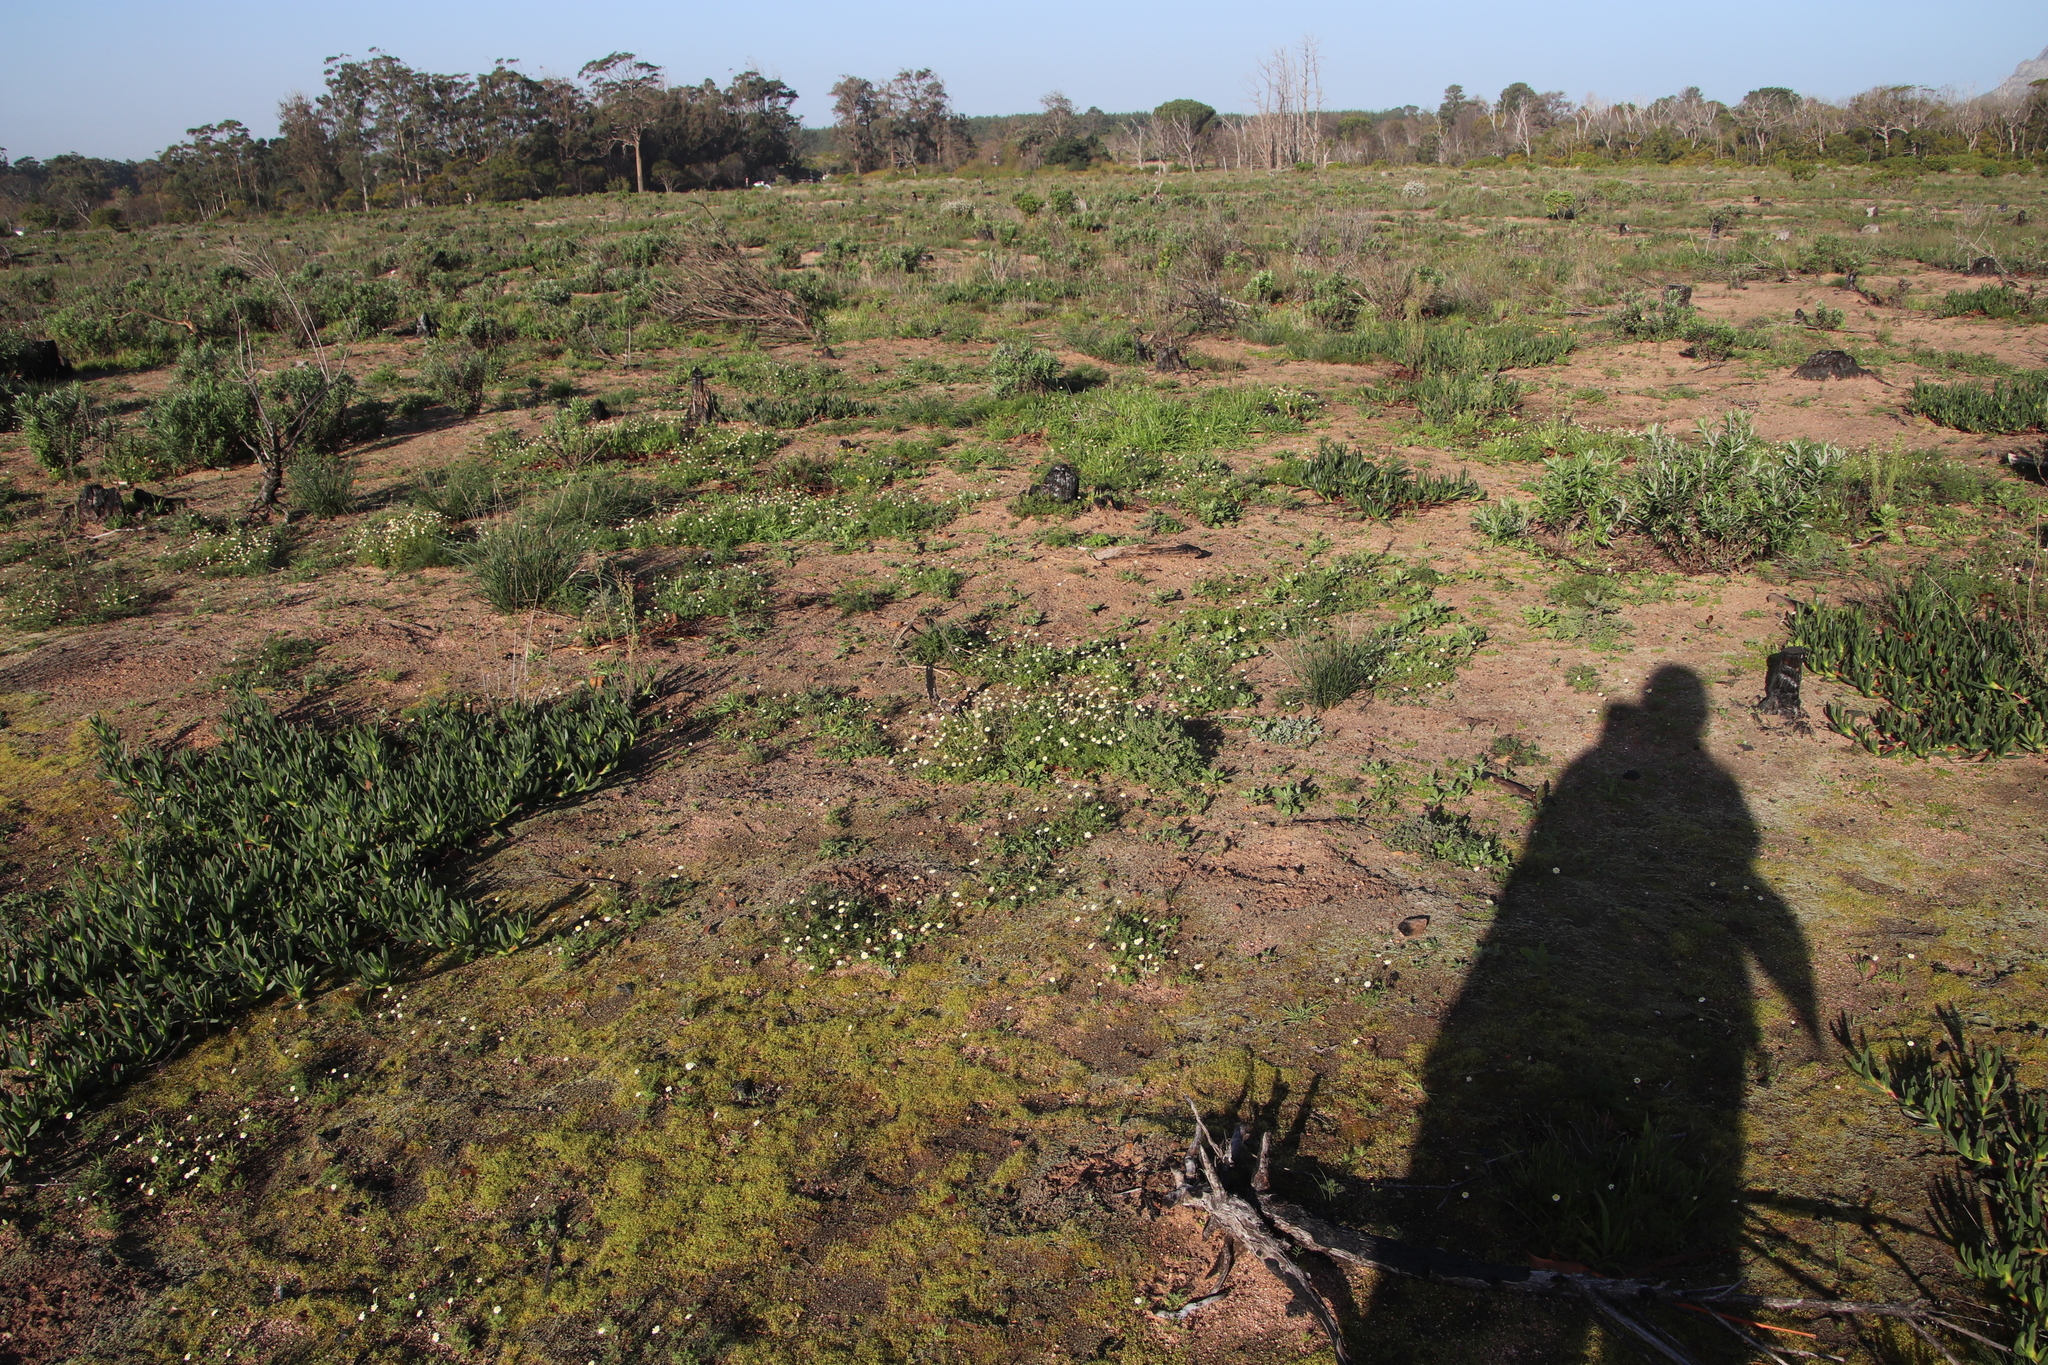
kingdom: Plantae
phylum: Tracheophyta
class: Magnoliopsida
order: Asterales
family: Asteraceae
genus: Cotula
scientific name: Cotula turbinata
